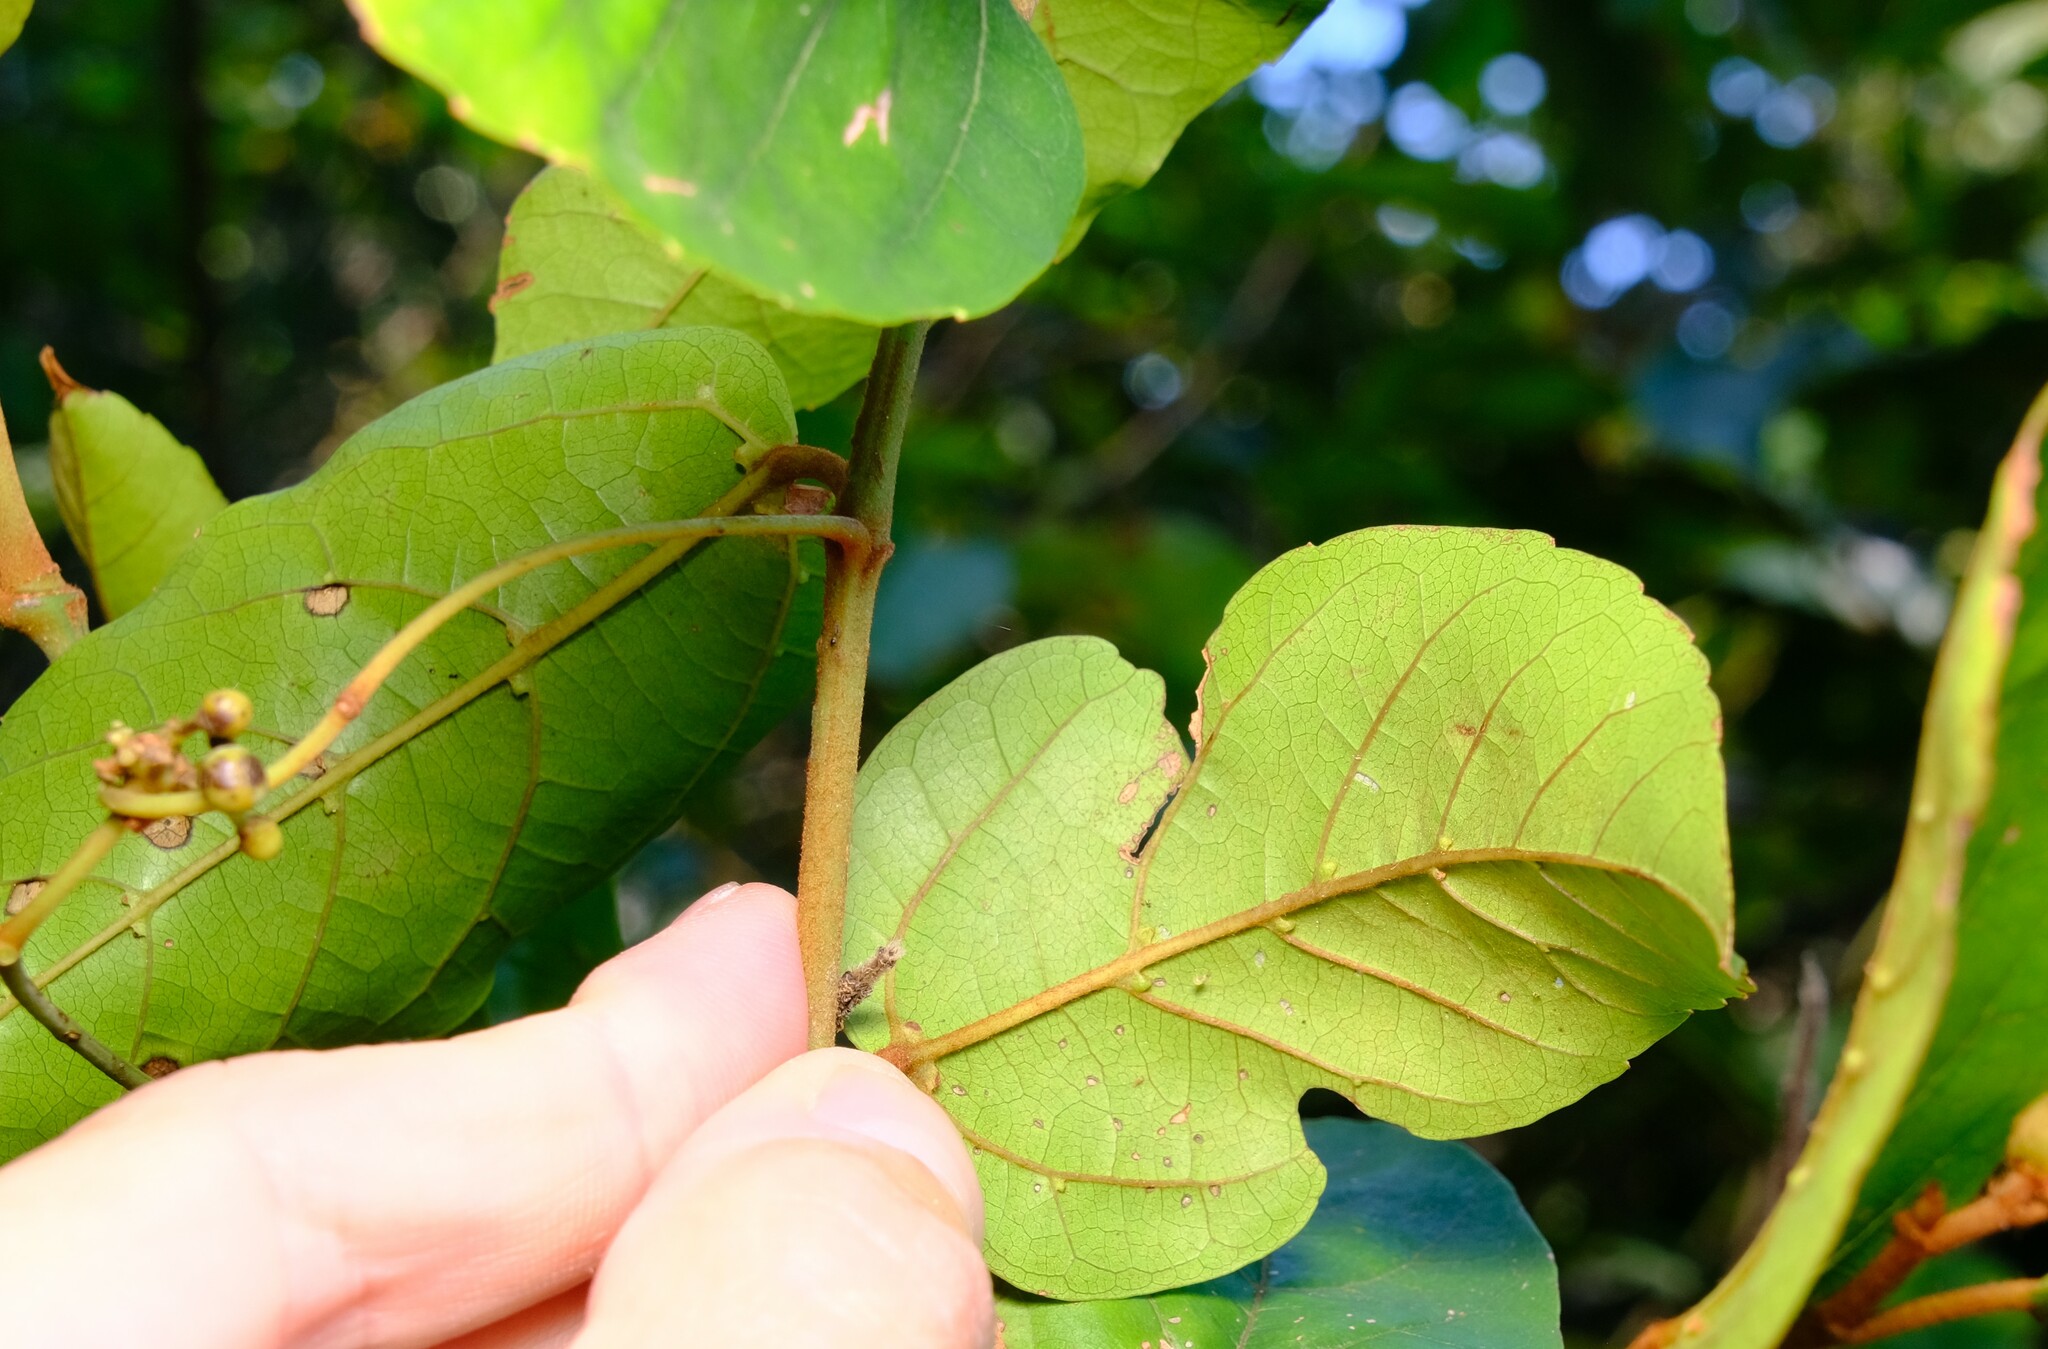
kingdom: Plantae
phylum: Tracheophyta
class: Magnoliopsida
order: Vitales
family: Vitaceae
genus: Cissus
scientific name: Cissus antarctica
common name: Kangaroo vine
